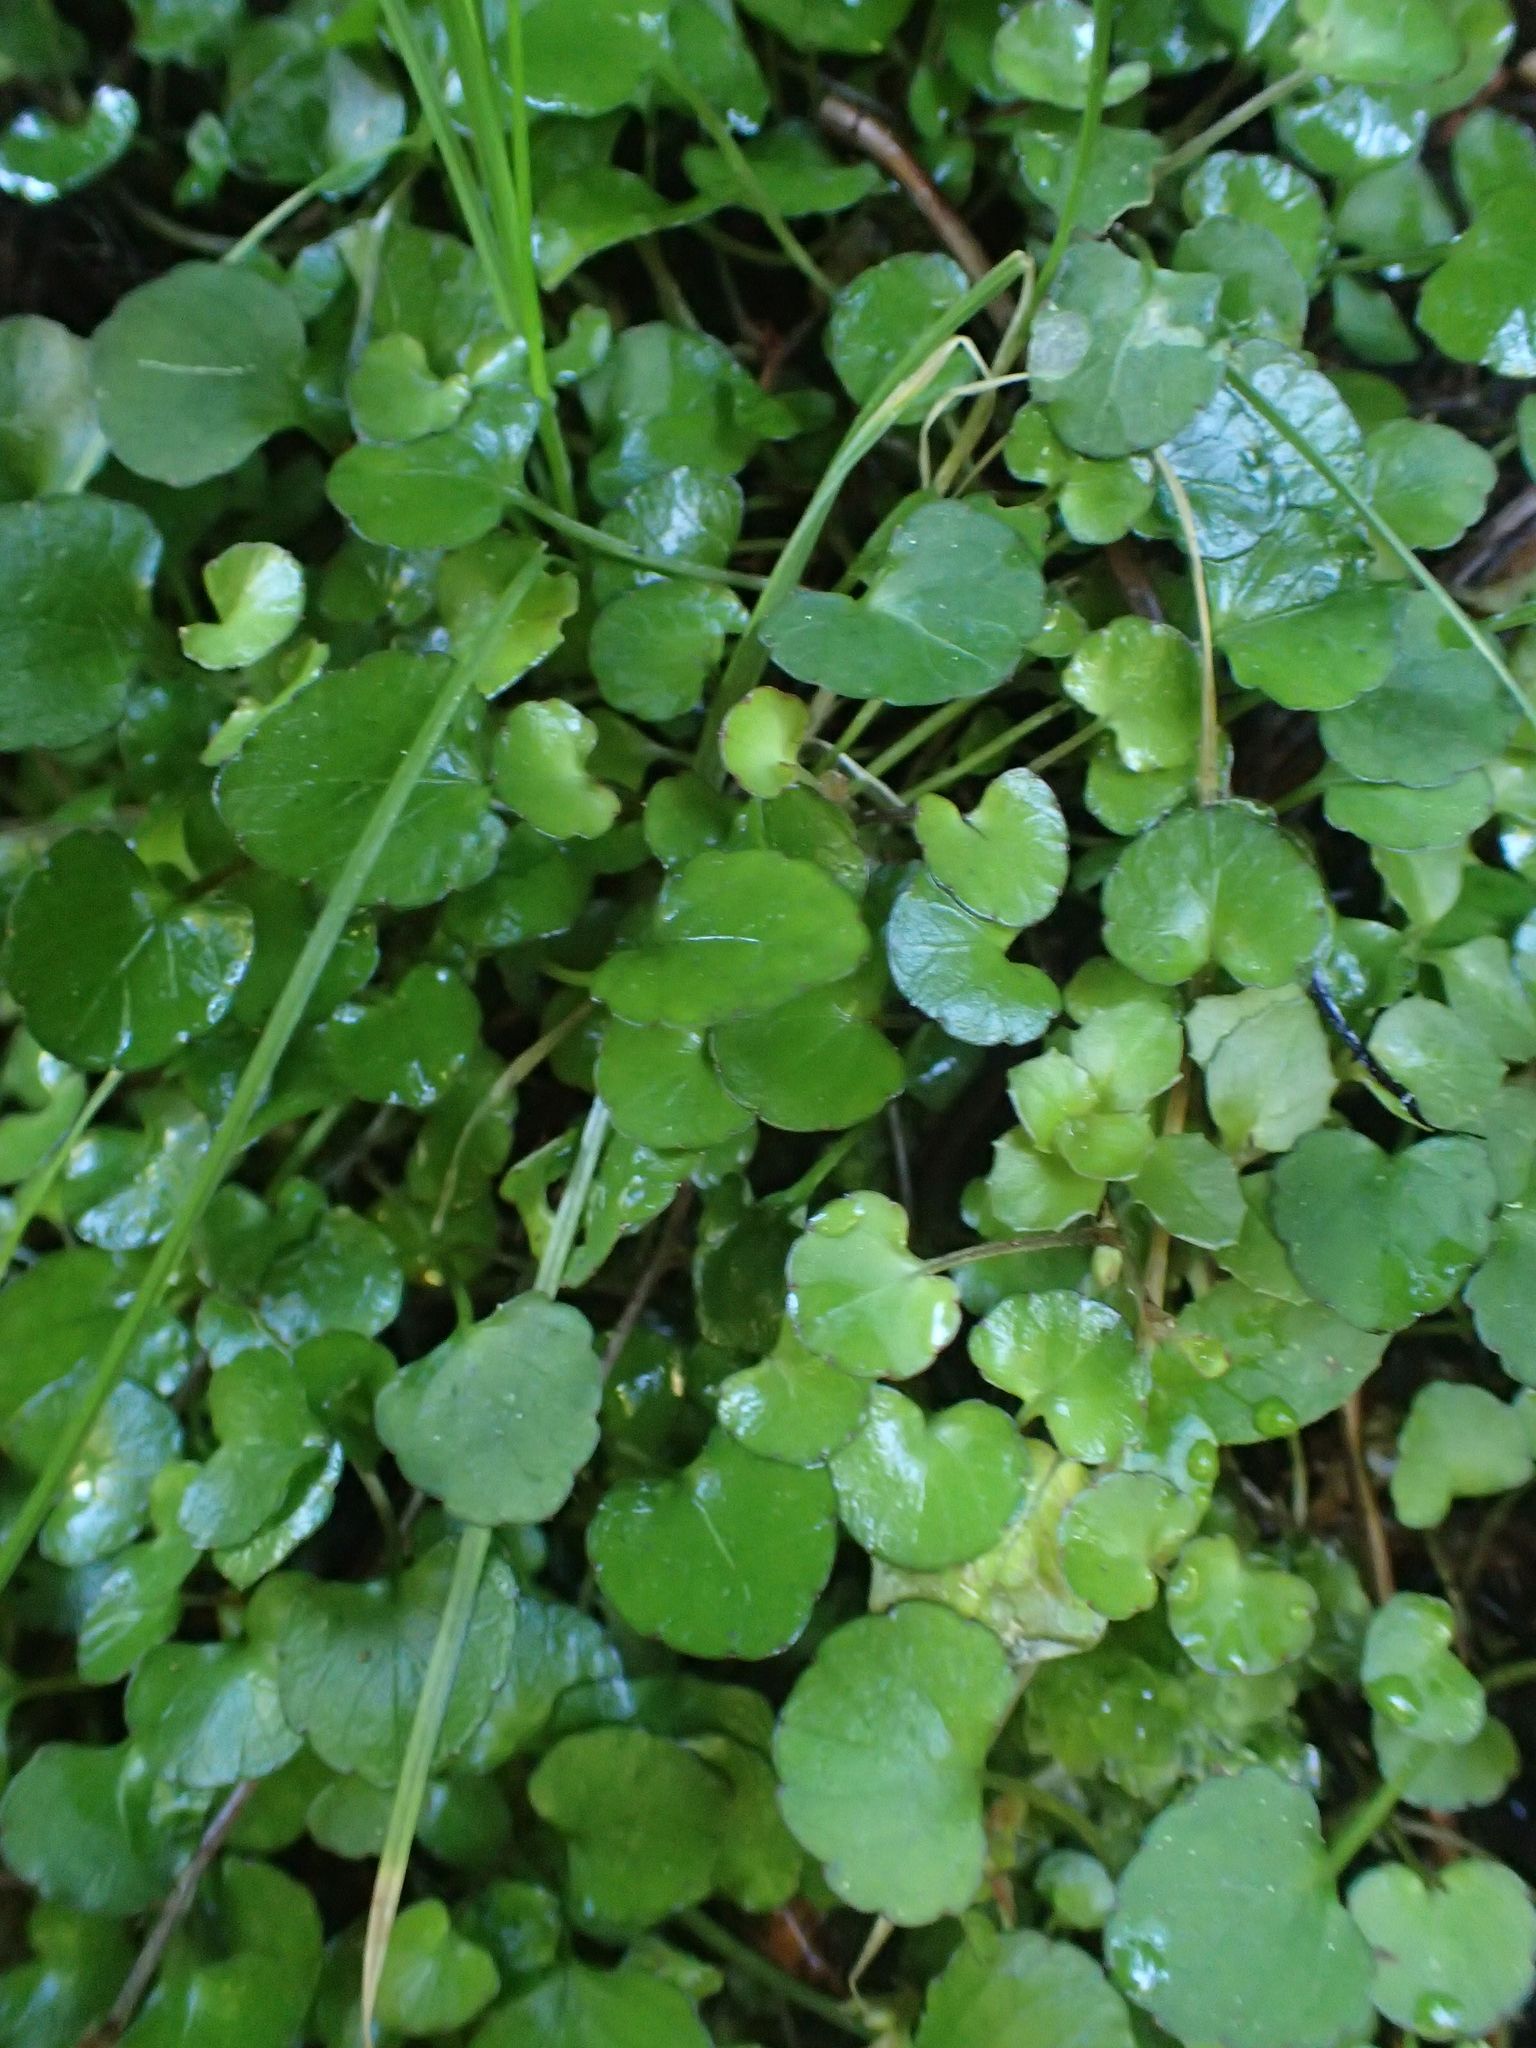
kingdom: Plantae
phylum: Tracheophyta
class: Magnoliopsida
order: Malpighiales
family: Violaceae
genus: Viola
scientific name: Viola filicaulis
